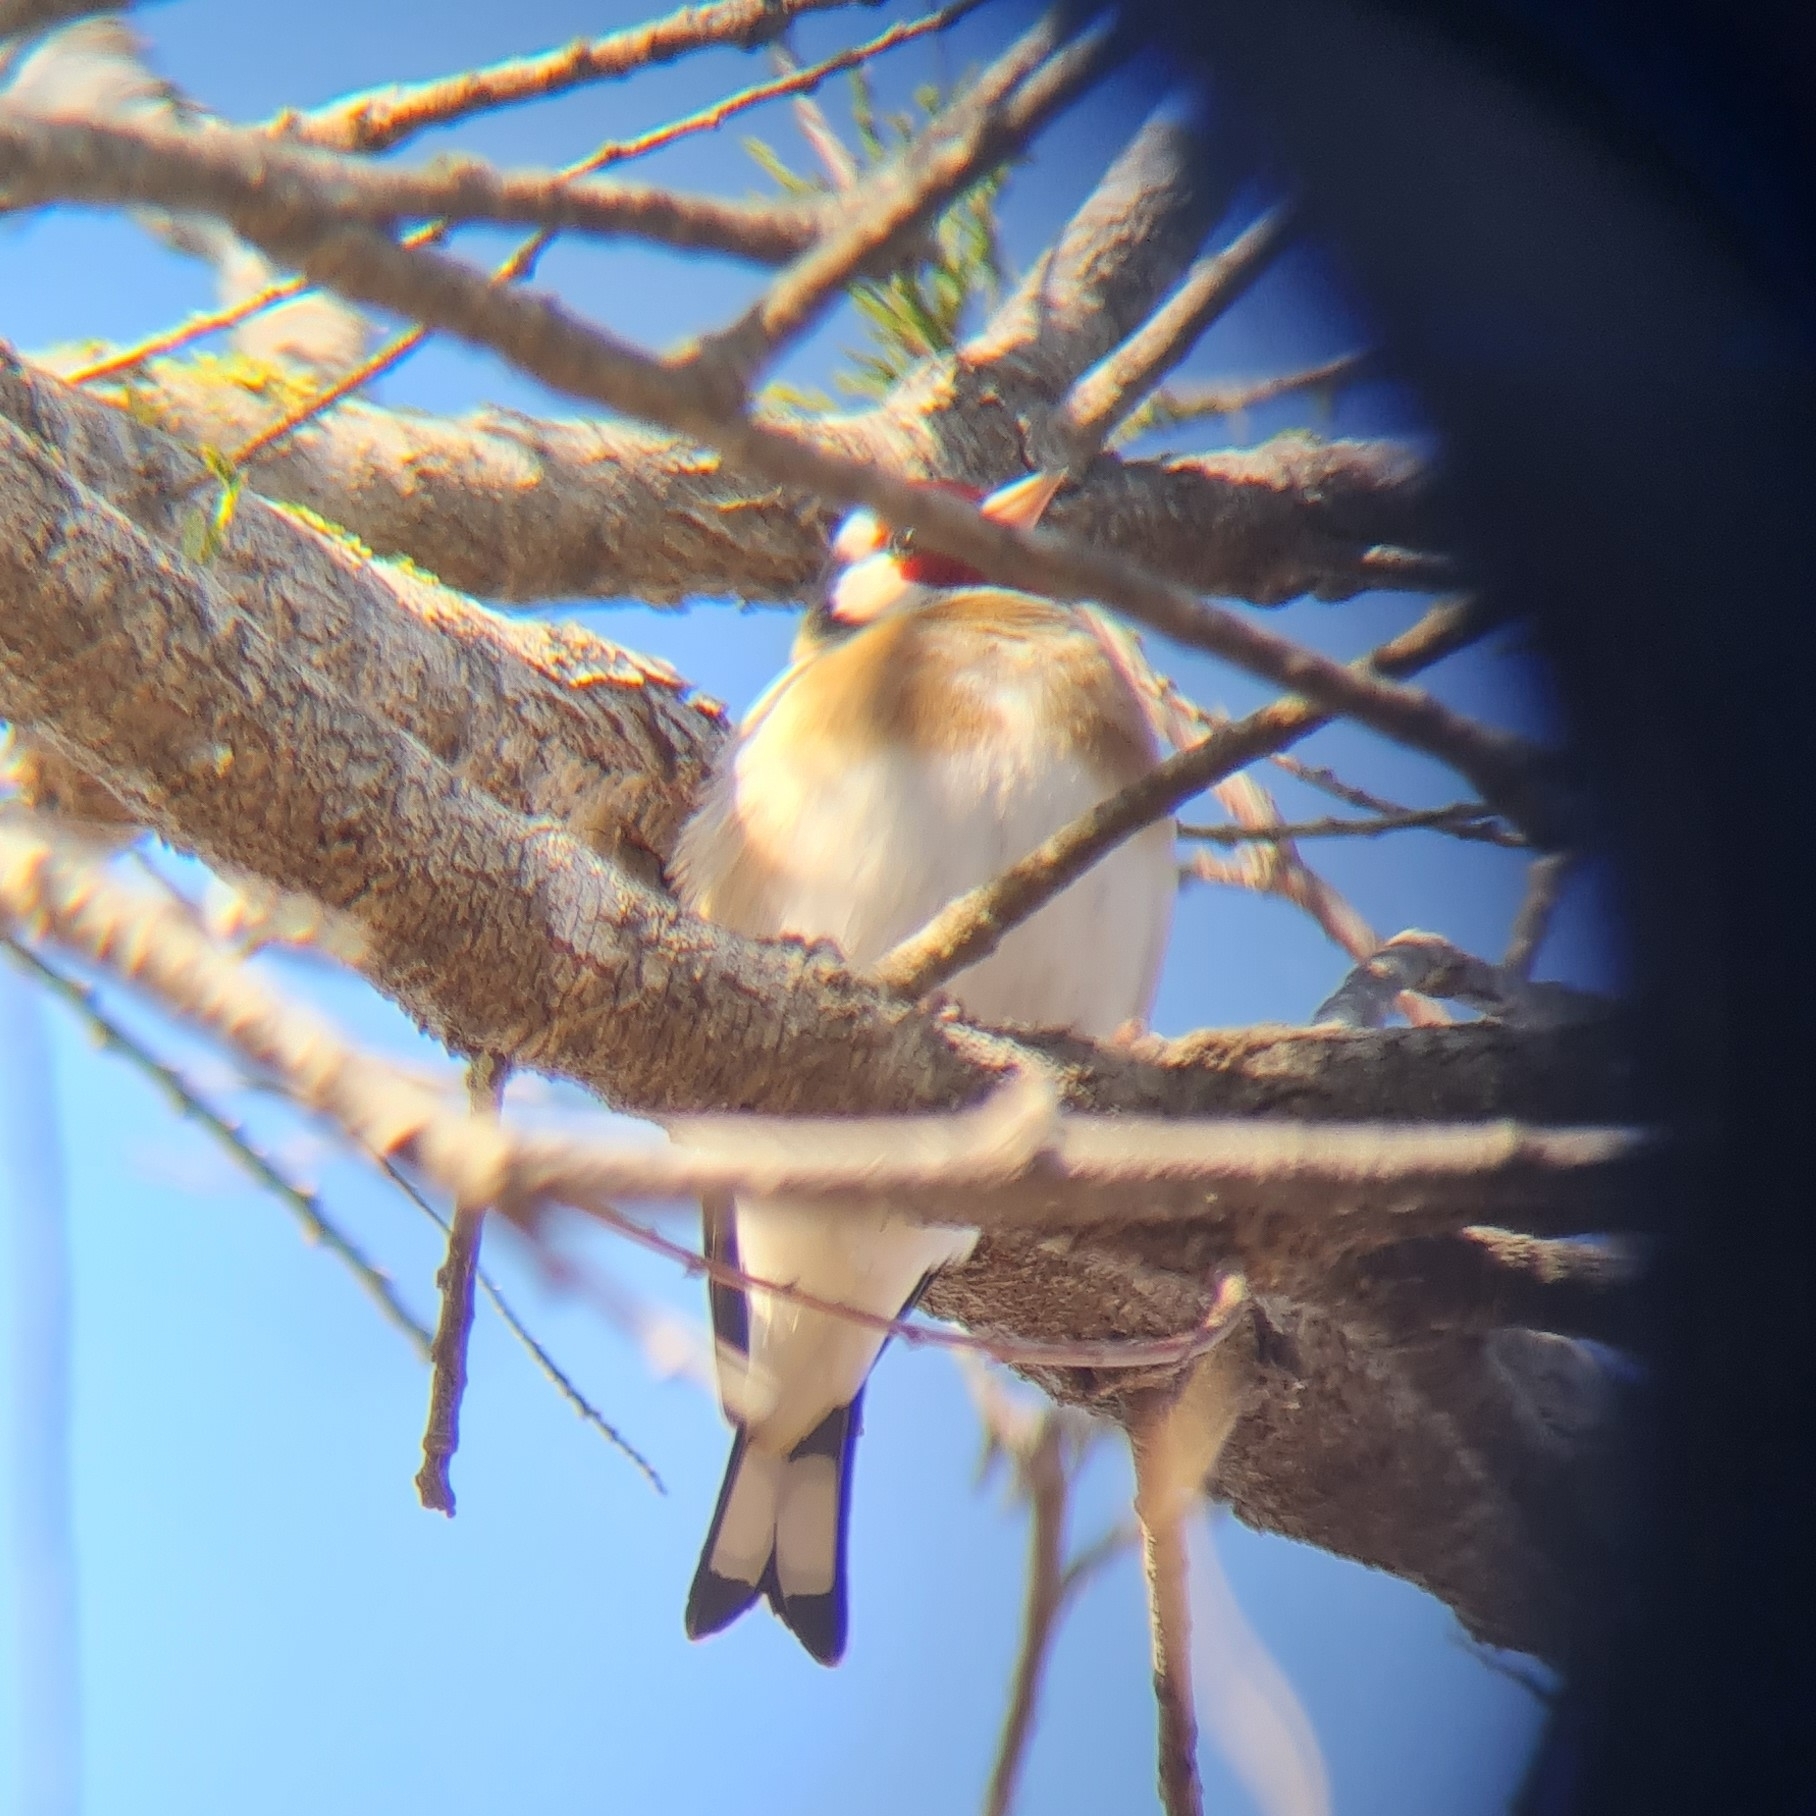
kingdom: Animalia
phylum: Chordata
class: Aves
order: Passeriformes
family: Fringillidae
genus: Carduelis
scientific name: Carduelis carduelis
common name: European goldfinch
